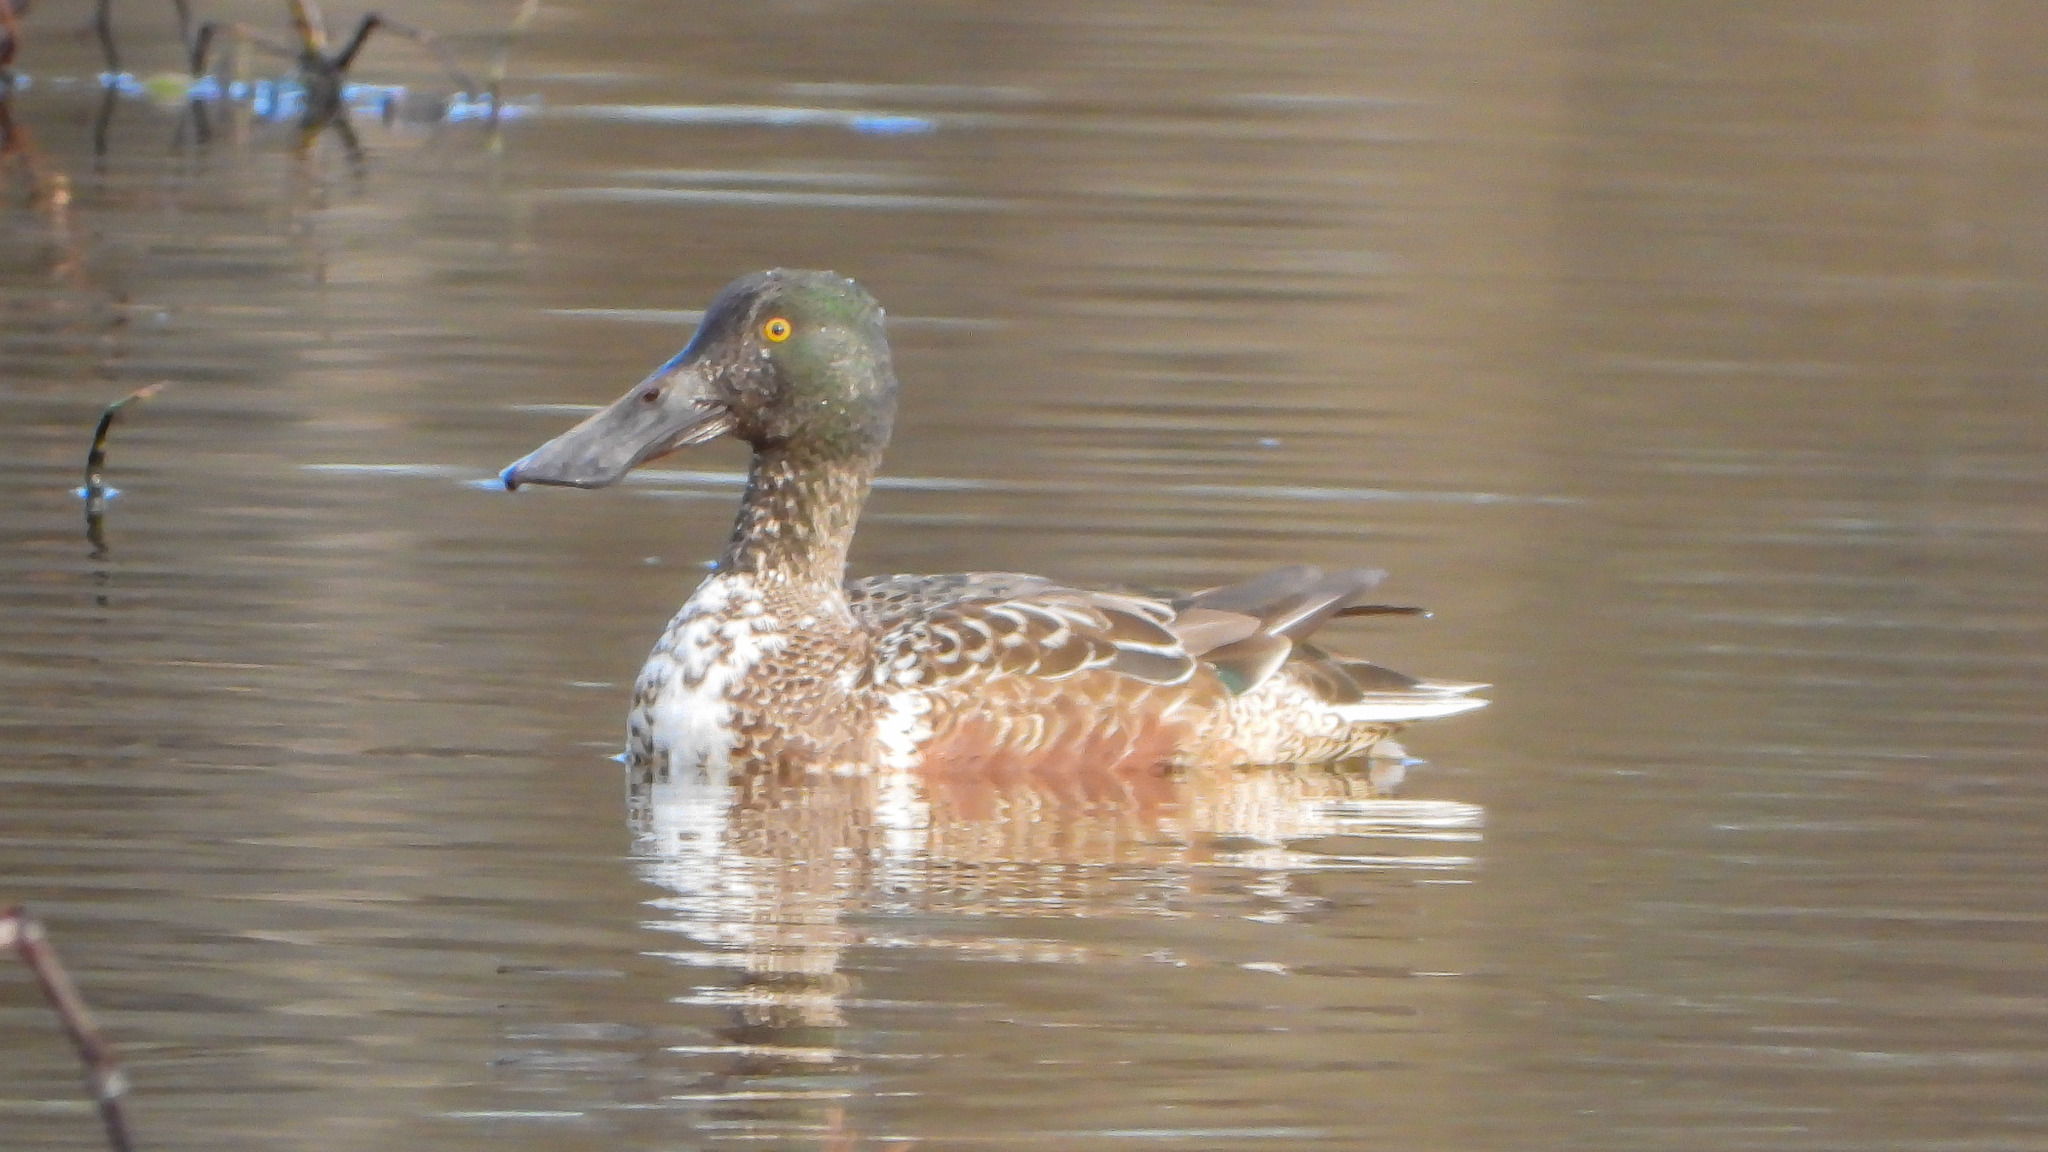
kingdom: Animalia
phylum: Chordata
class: Aves
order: Anseriformes
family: Anatidae
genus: Spatula
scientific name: Spatula clypeata
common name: Northern shoveler
